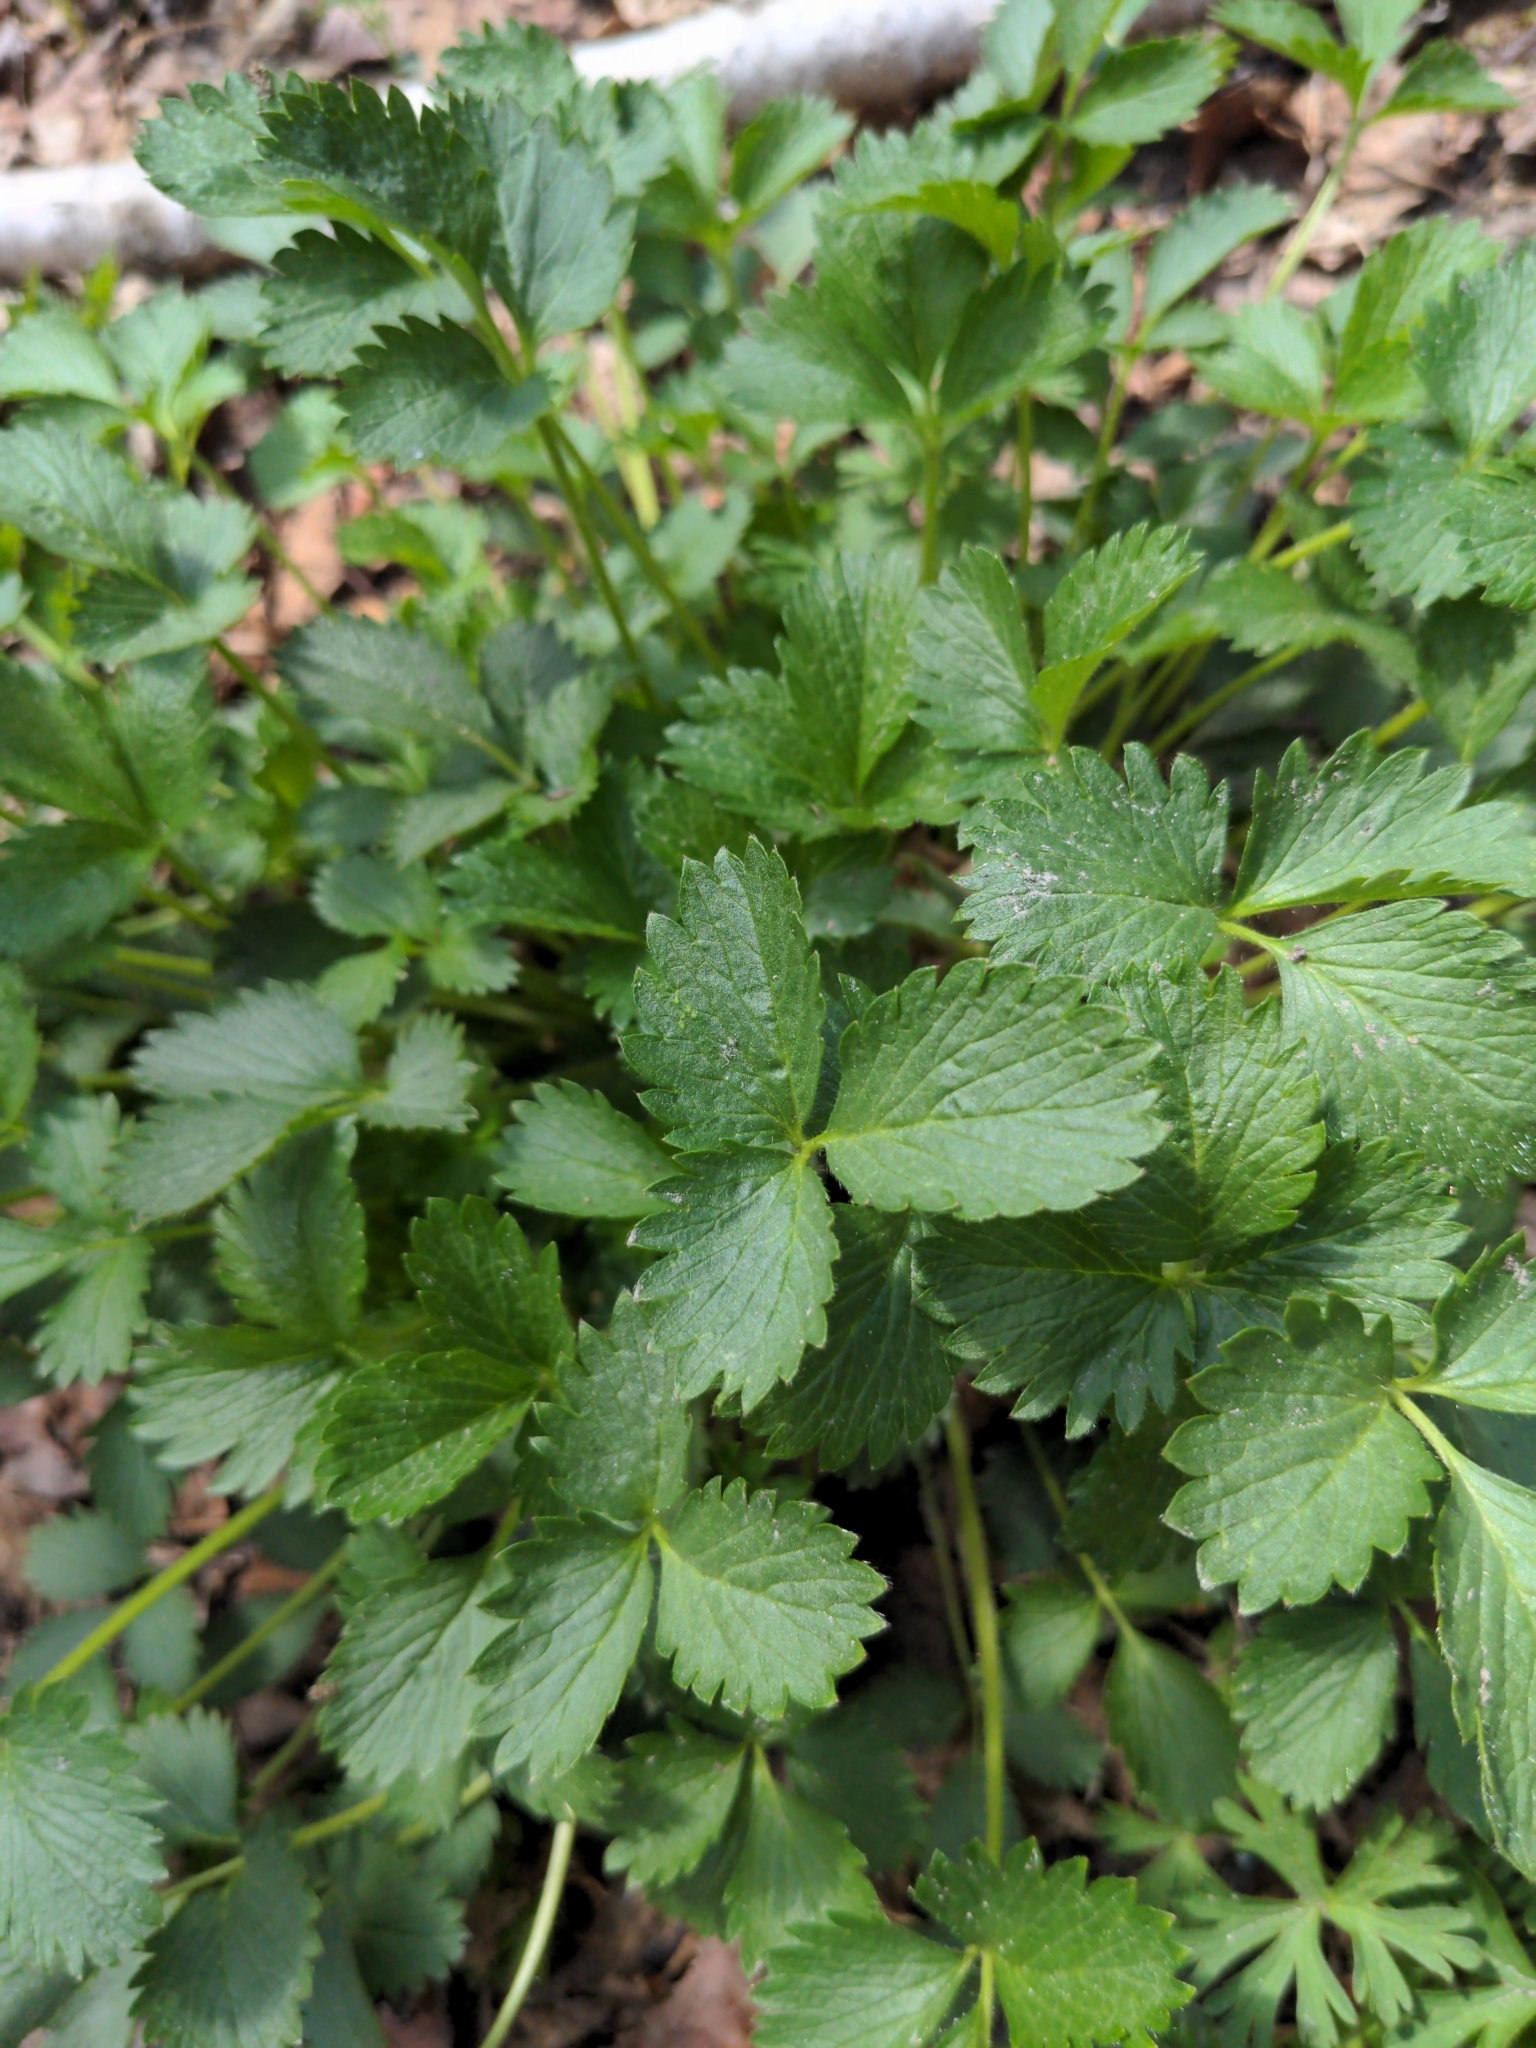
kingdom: Plantae
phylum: Tracheophyta
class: Magnoliopsida
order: Rosales
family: Rosaceae
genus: Potentilla
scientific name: Potentilla norvegica
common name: Ternate-leaved cinquefoil
